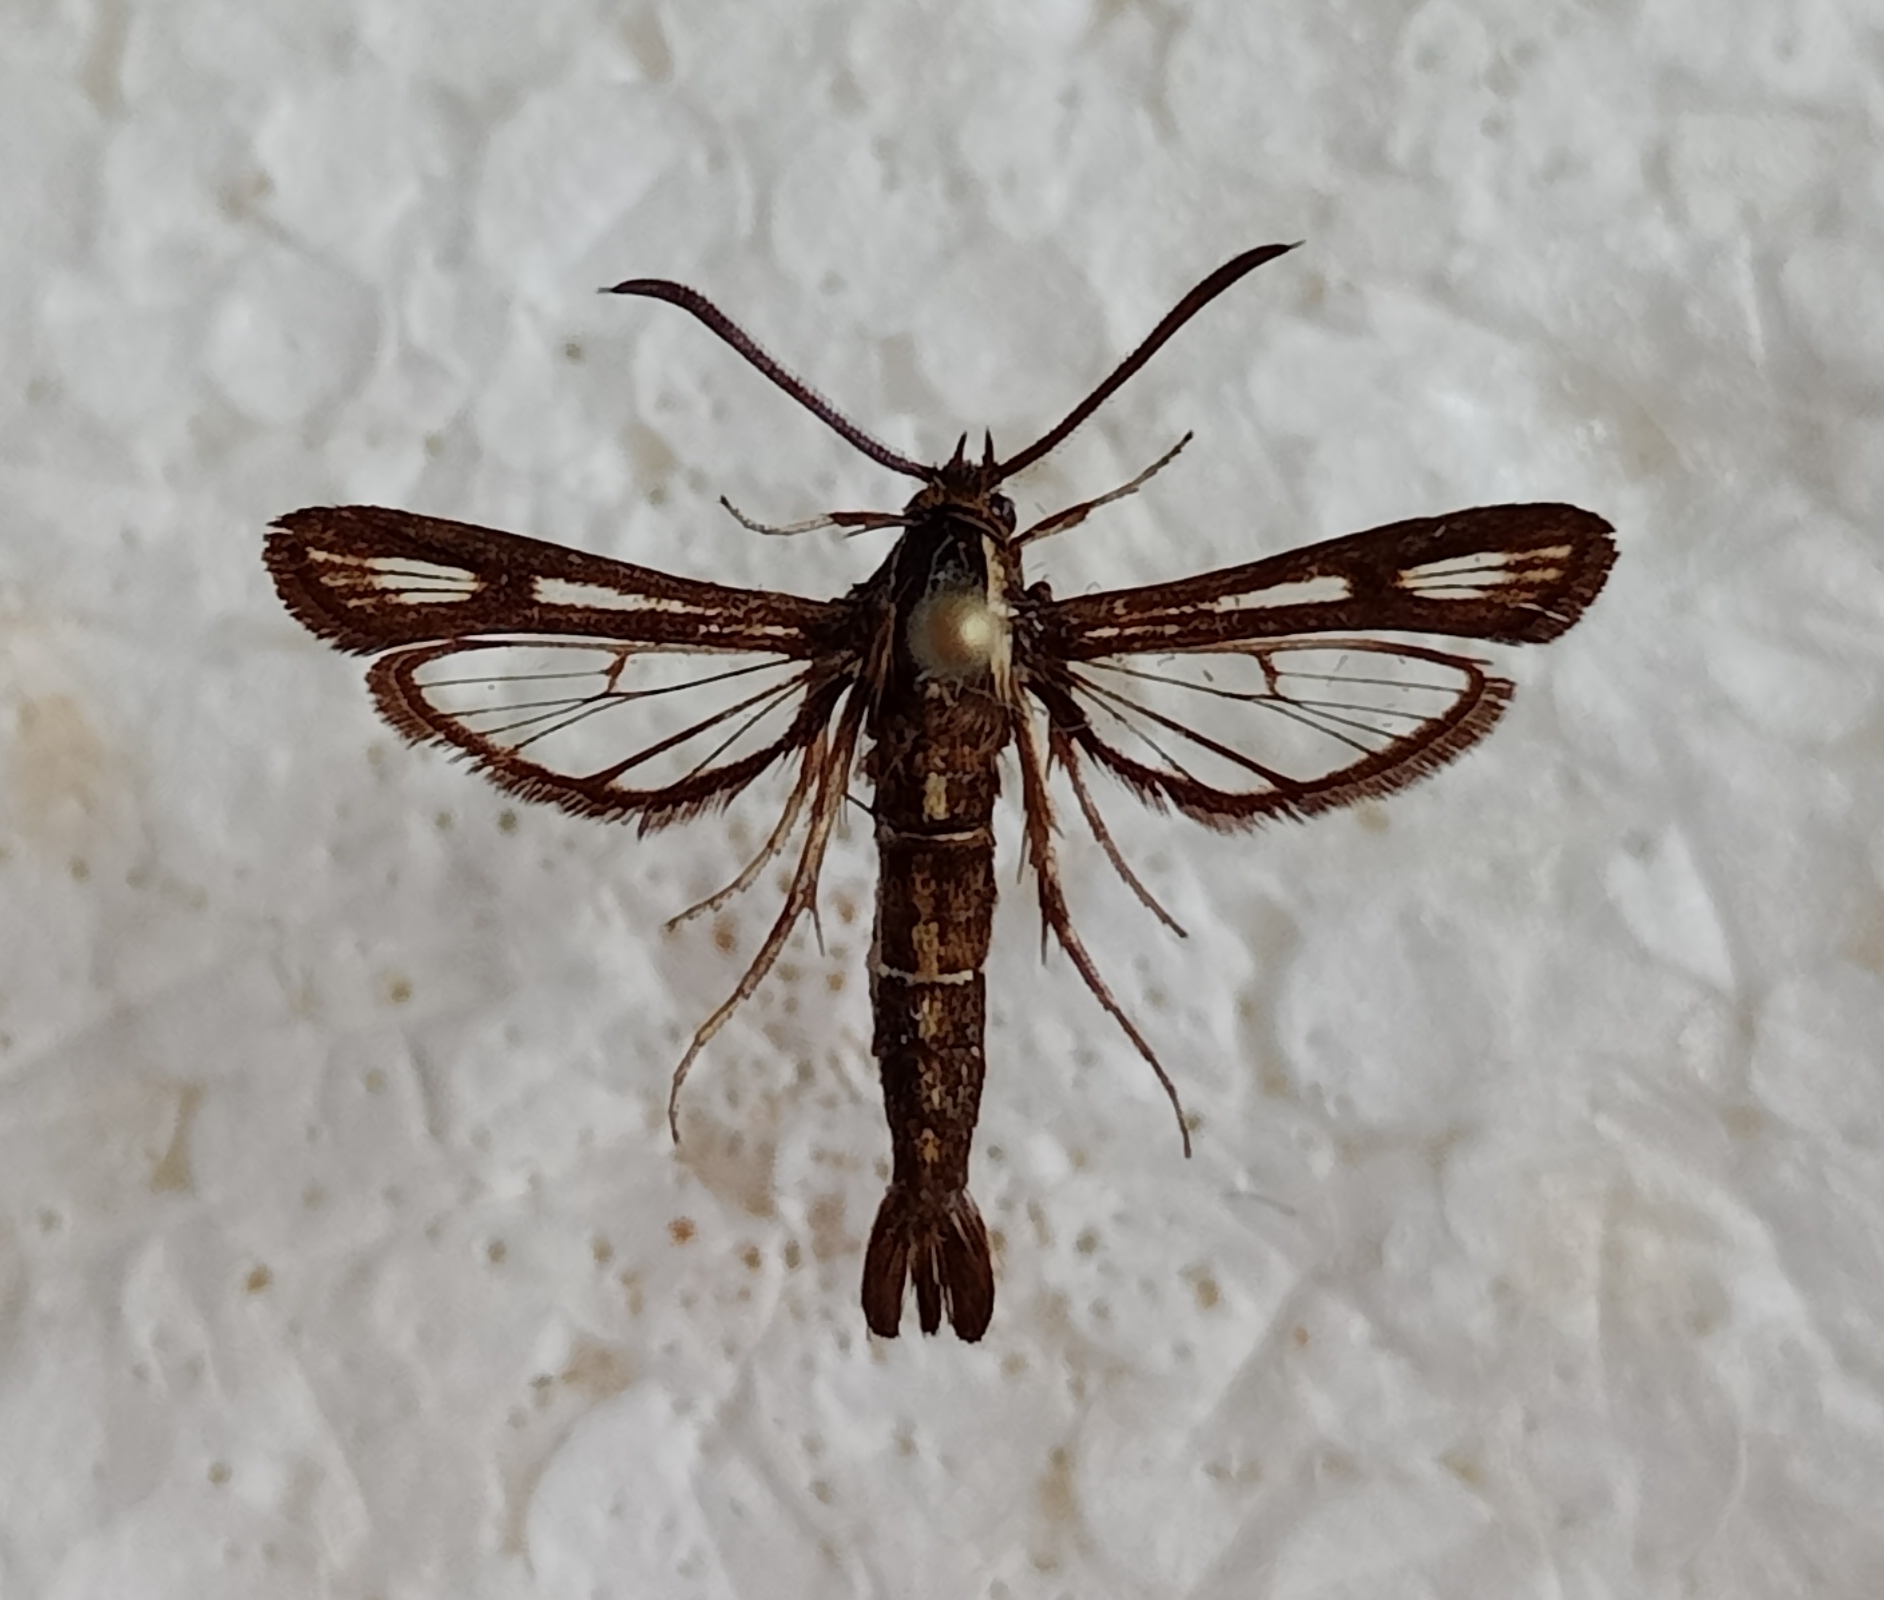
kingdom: Animalia
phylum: Arthropoda
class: Insecta
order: Lepidoptera
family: Sesiidae
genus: Chamaesphecia
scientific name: Chamaesphecia leucopsiformis
